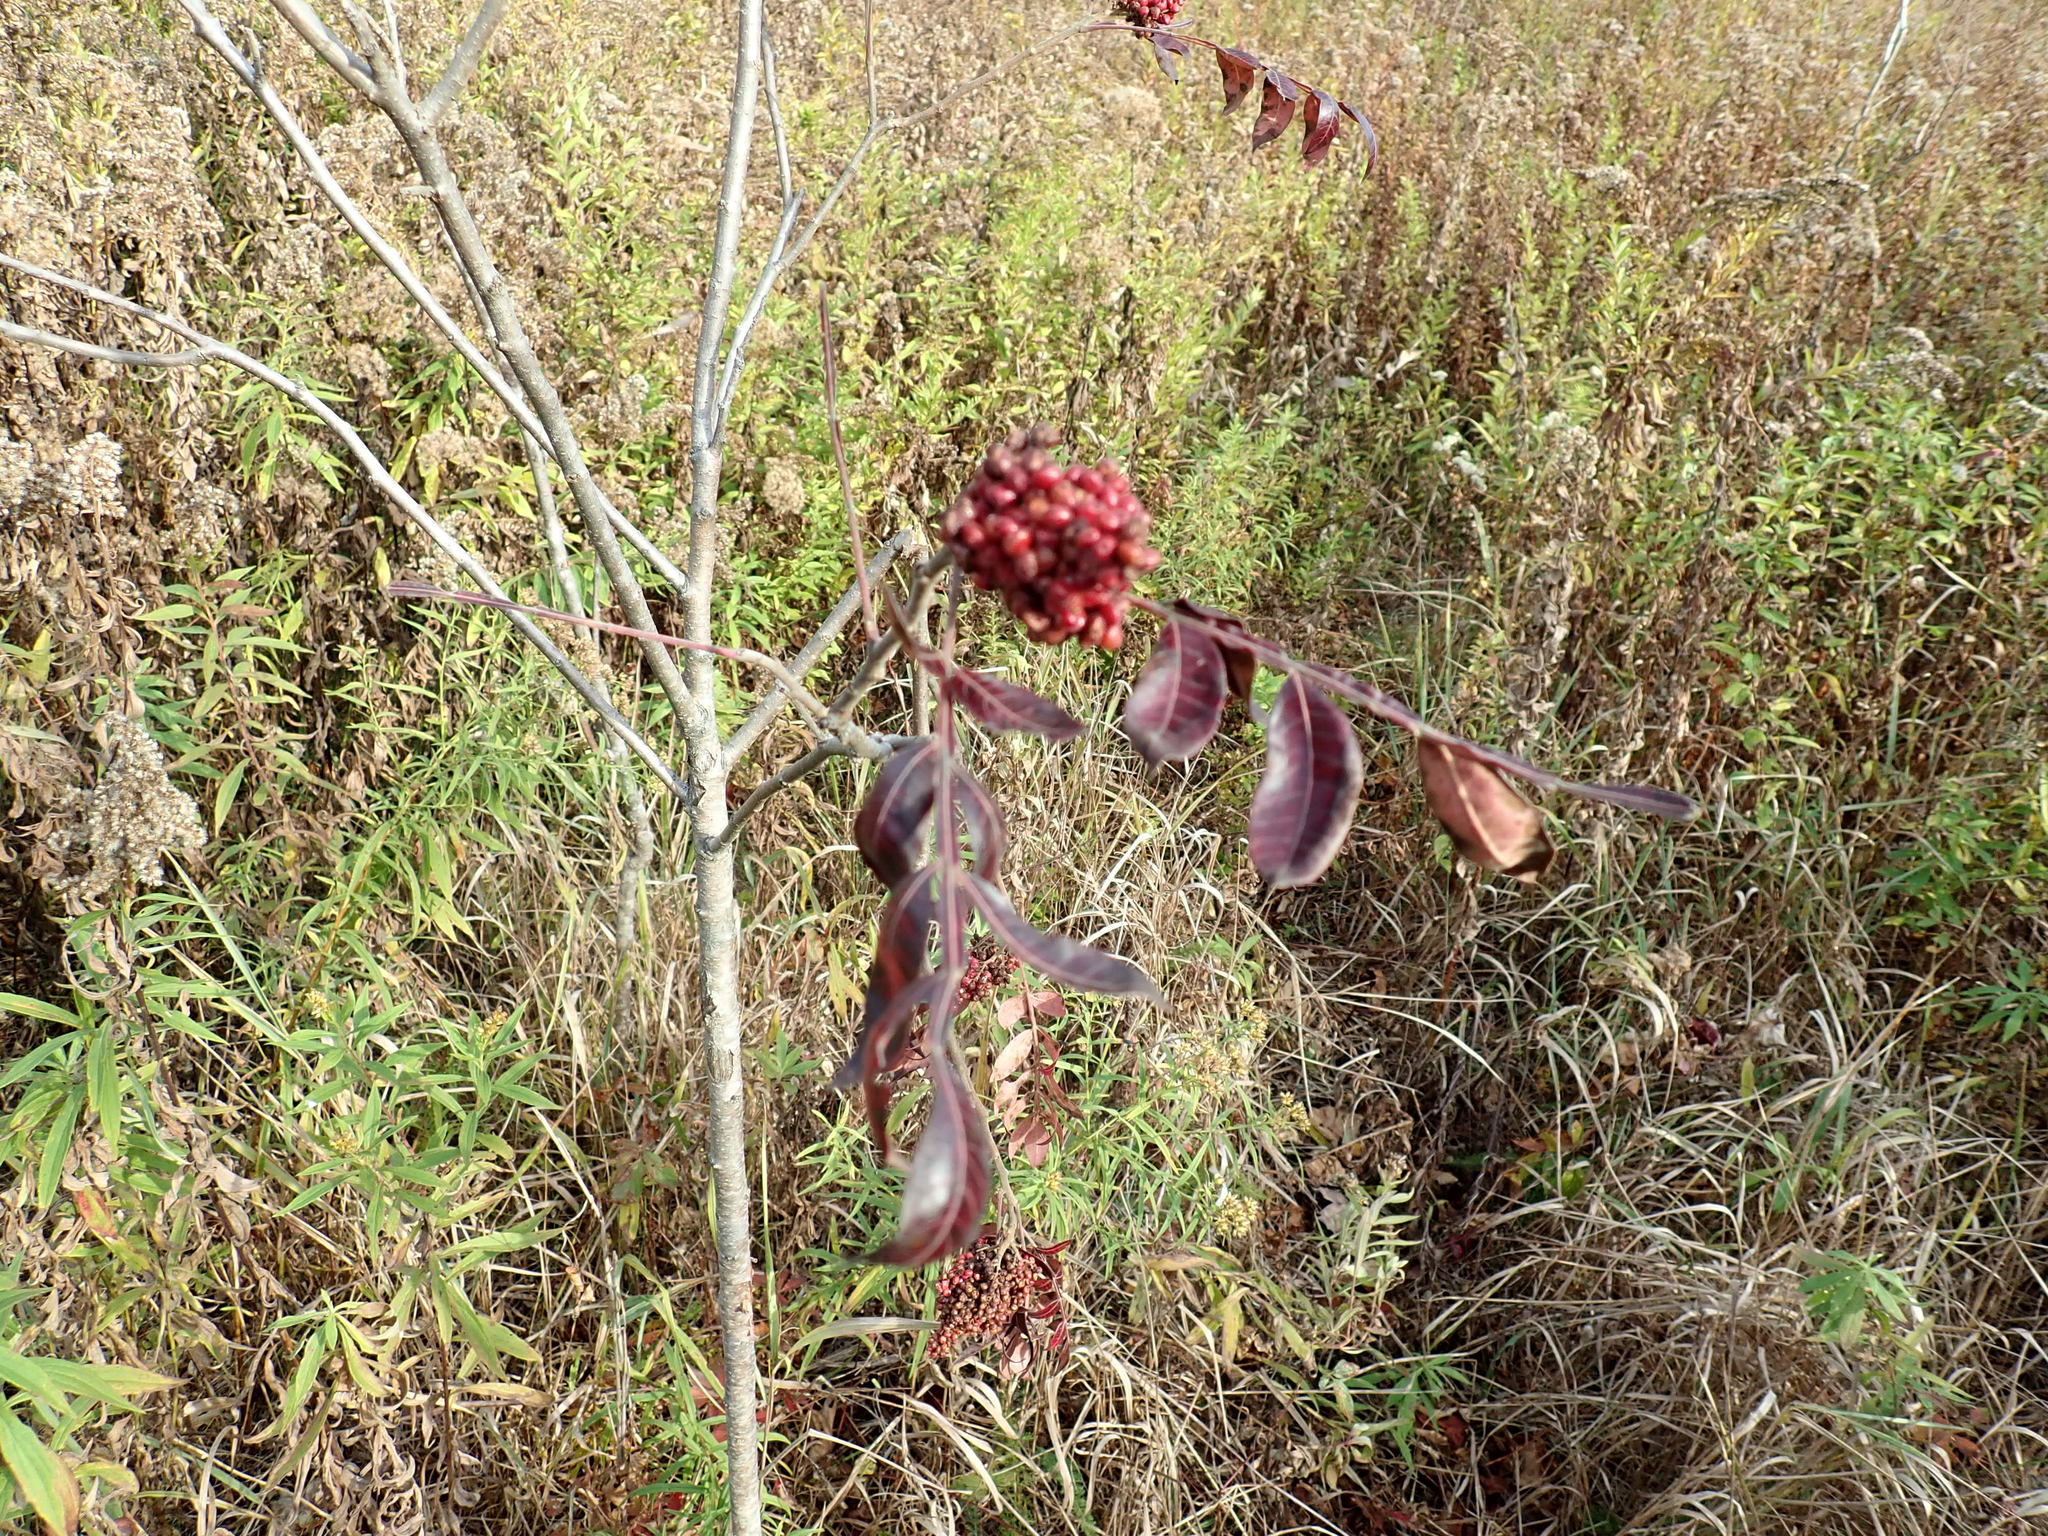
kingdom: Plantae
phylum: Tracheophyta
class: Magnoliopsida
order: Sapindales
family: Anacardiaceae
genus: Rhus
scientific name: Rhus copallina
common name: Shining sumac
